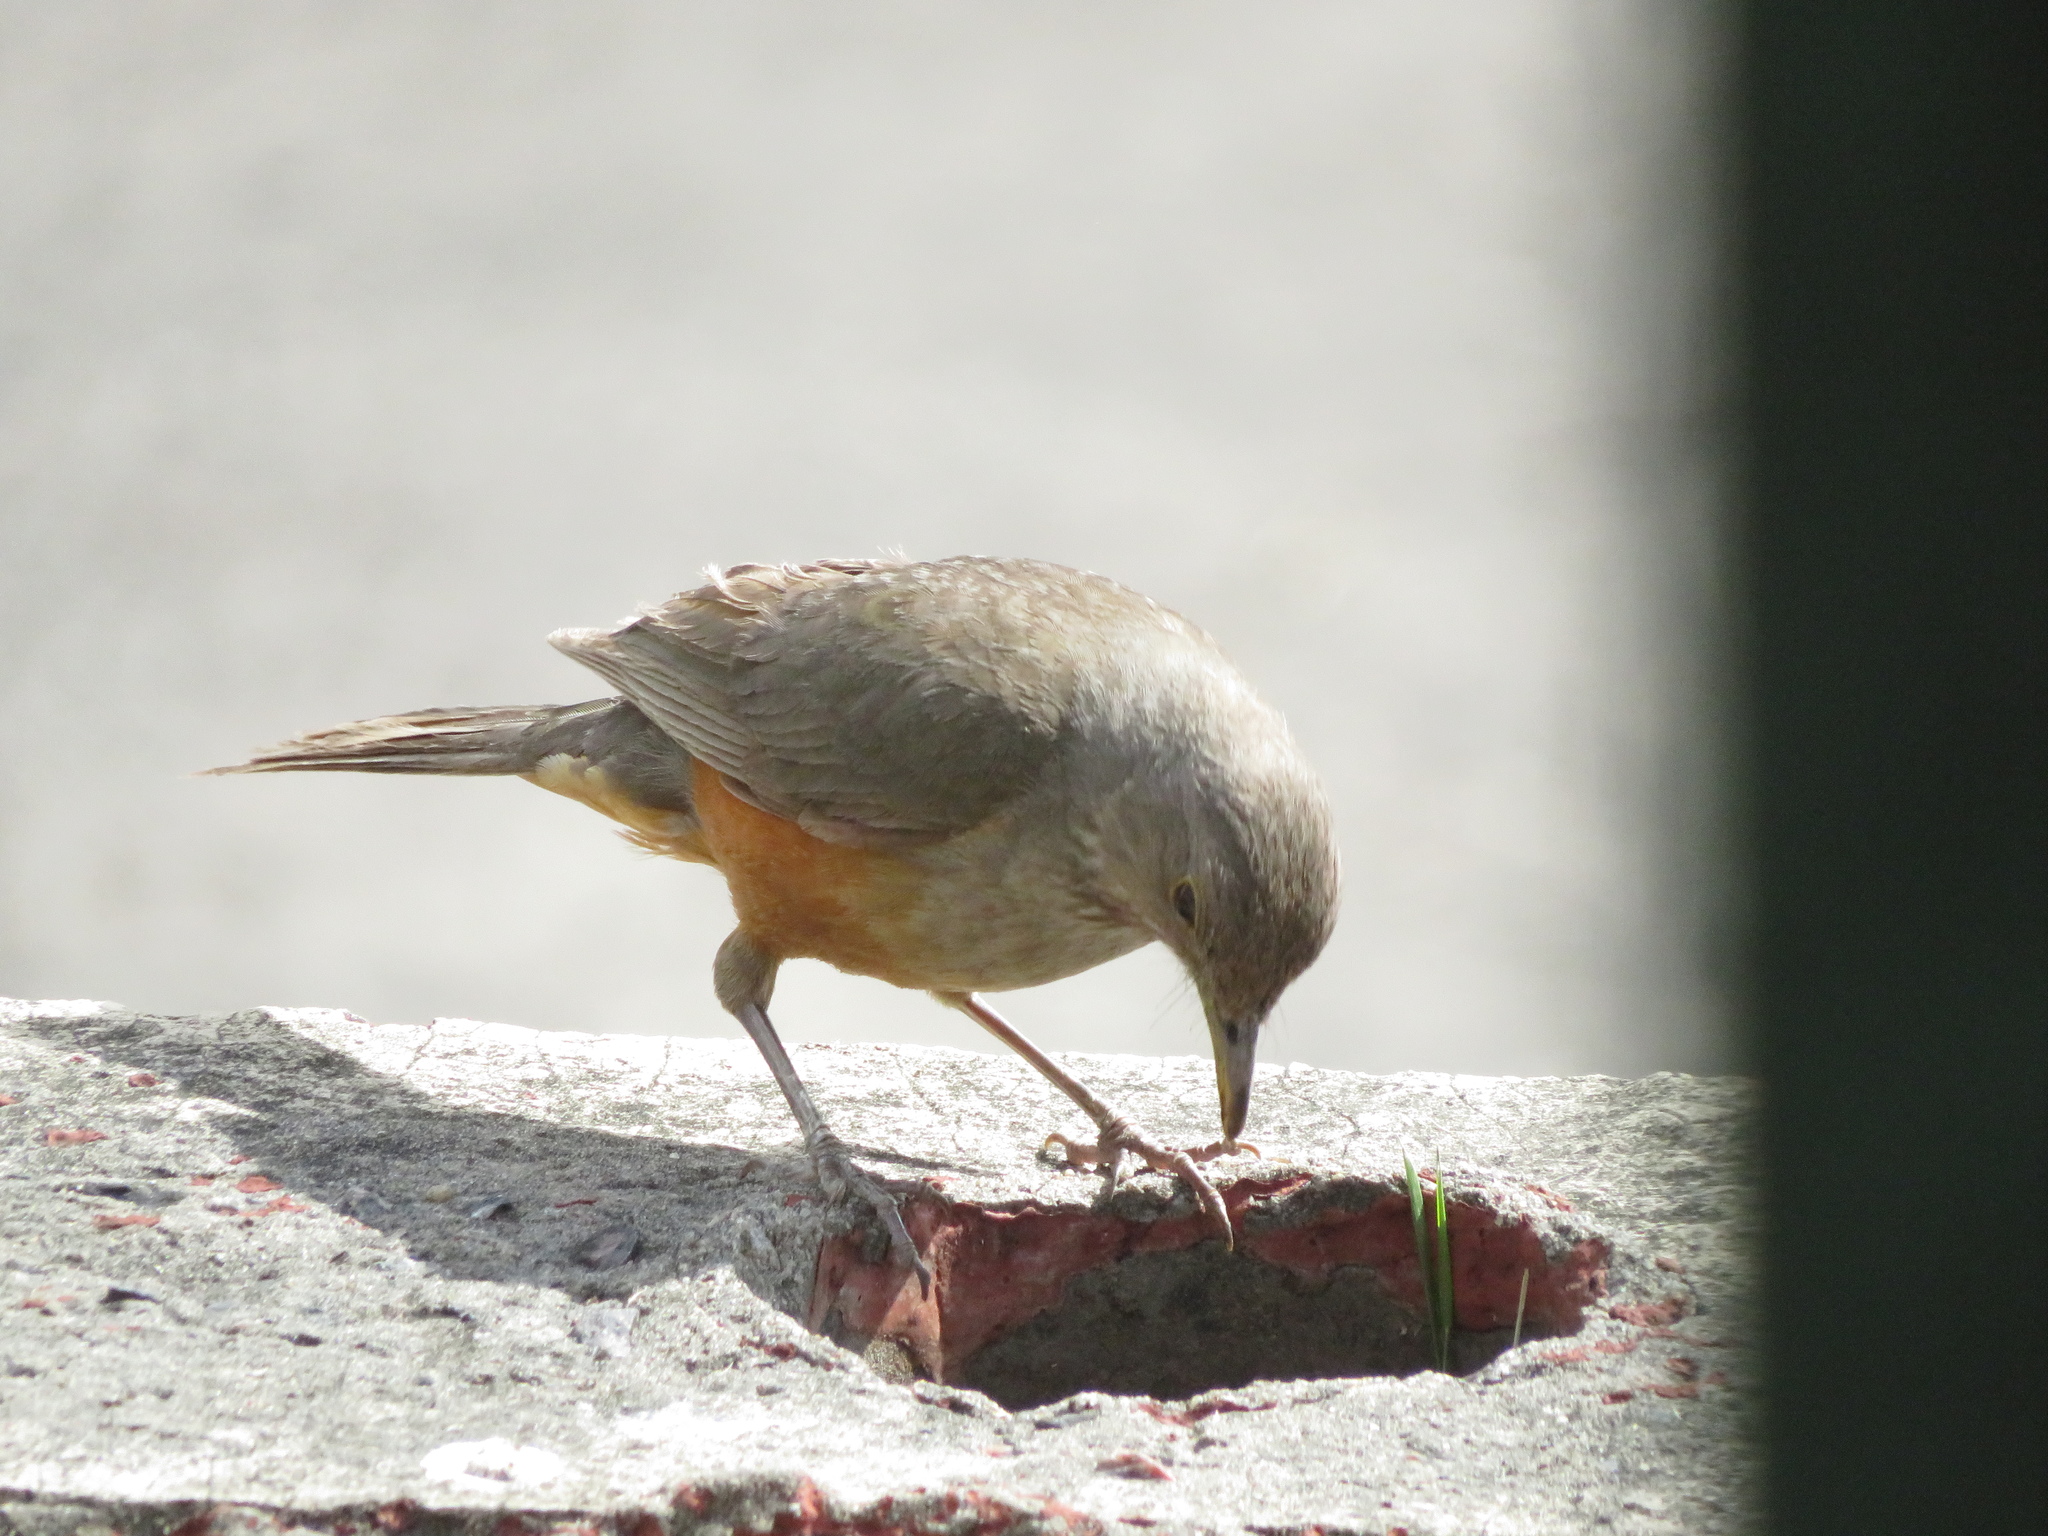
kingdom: Animalia
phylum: Chordata
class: Aves
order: Passeriformes
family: Turdidae
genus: Turdus
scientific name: Turdus rufiventris
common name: Rufous-bellied thrush
